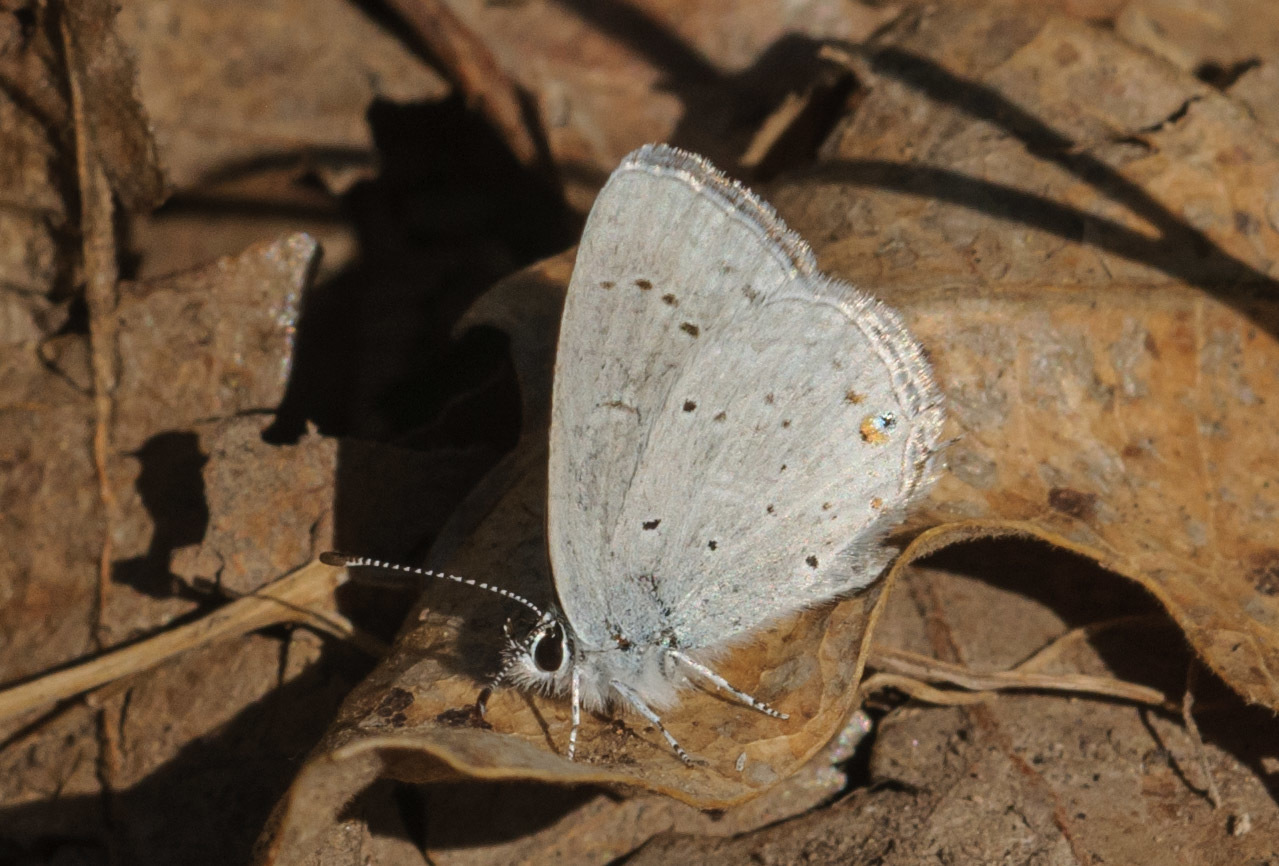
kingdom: Animalia
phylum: Arthropoda
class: Insecta
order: Lepidoptera
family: Lycaenidae
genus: Elkalyce
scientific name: Elkalyce amyntula
